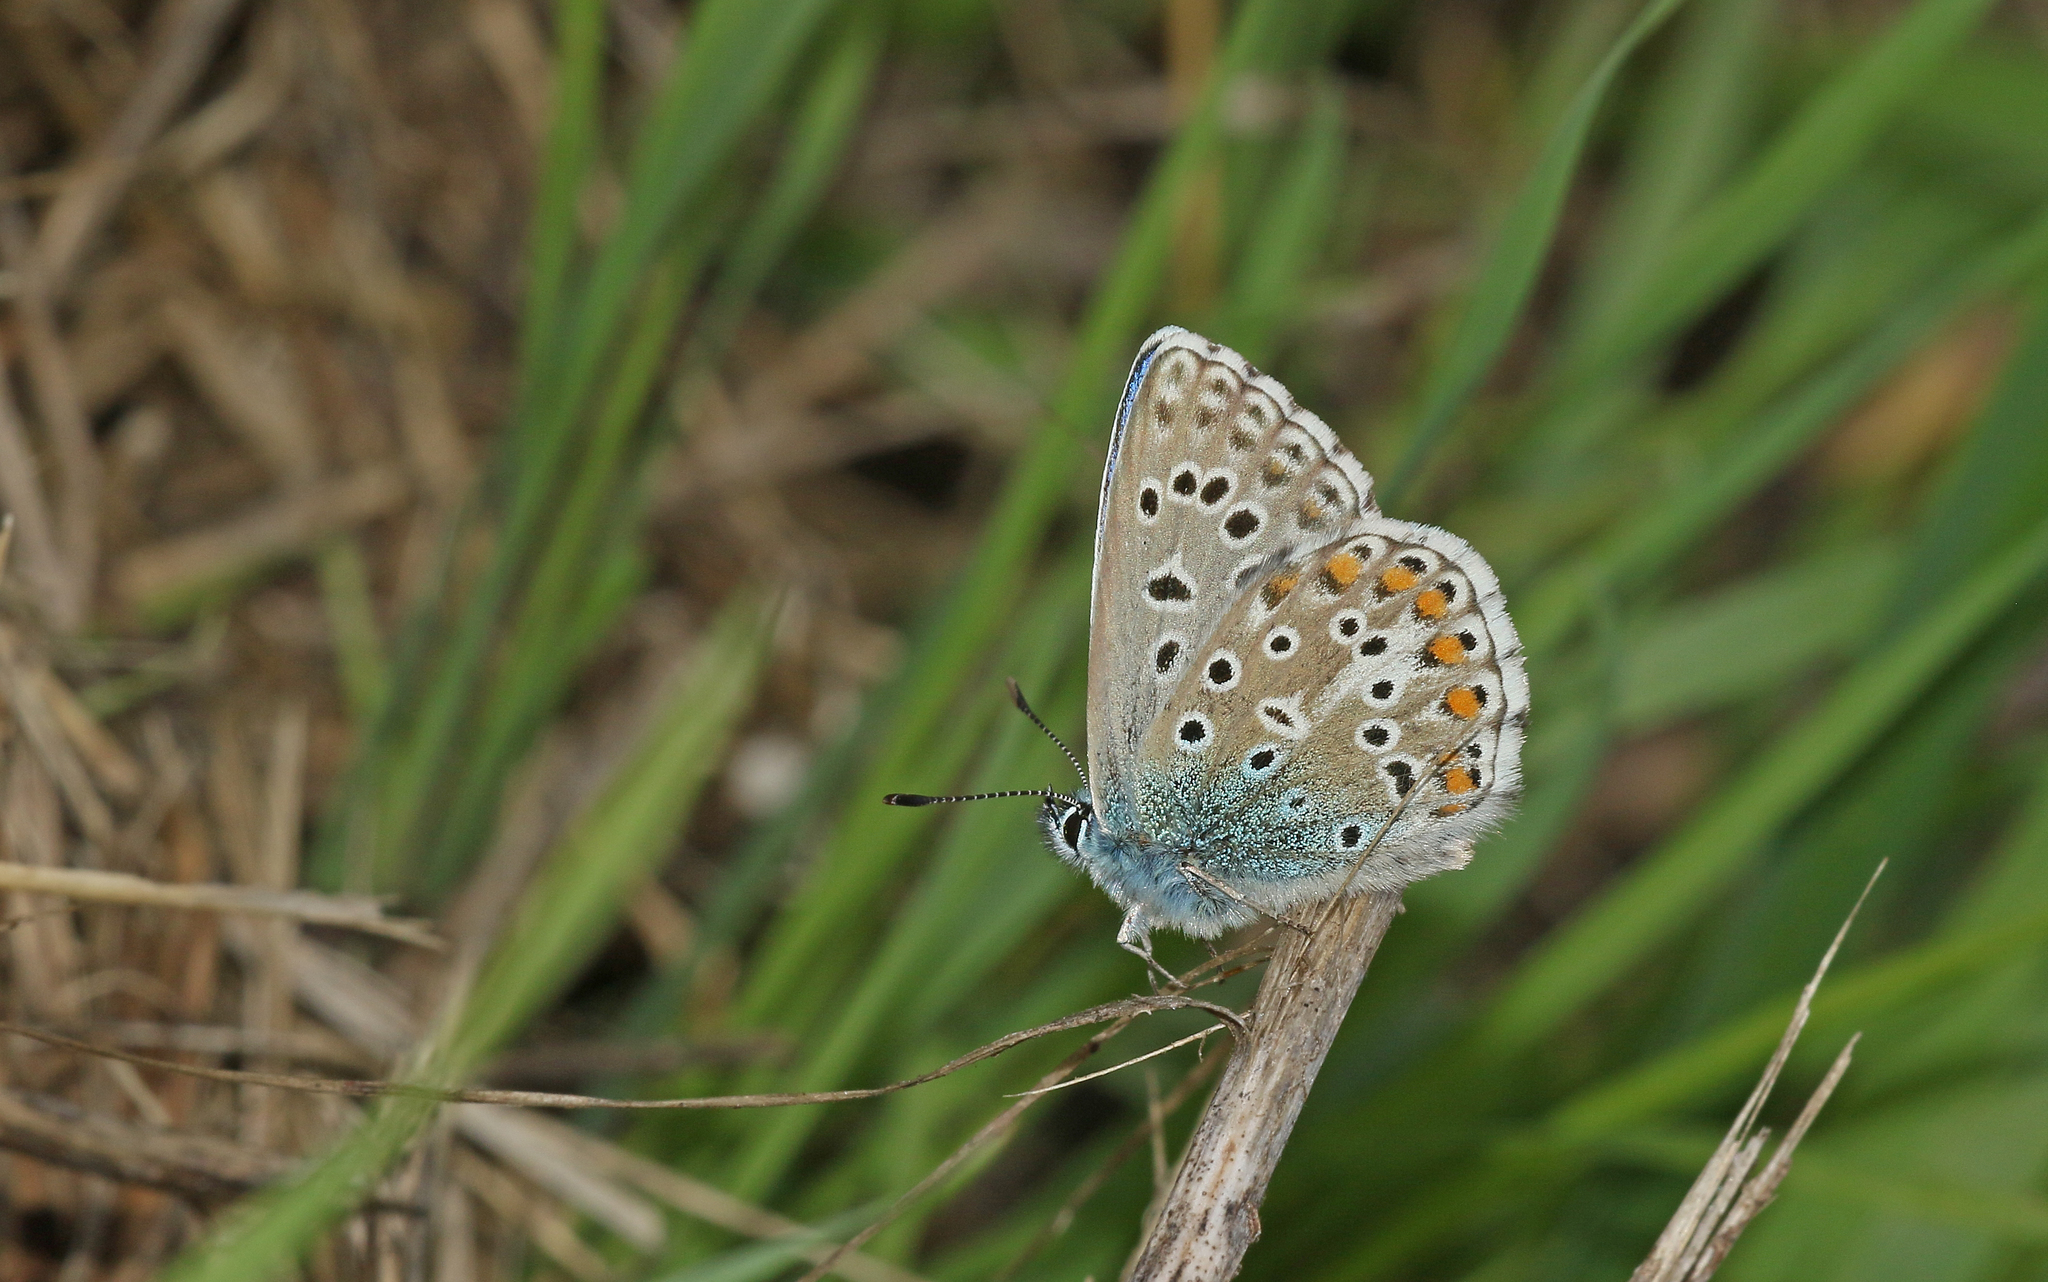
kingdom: Animalia
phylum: Arthropoda
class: Insecta
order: Lepidoptera
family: Lycaenidae
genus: Lysandra
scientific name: Lysandra bellargus
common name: Adonis blue
